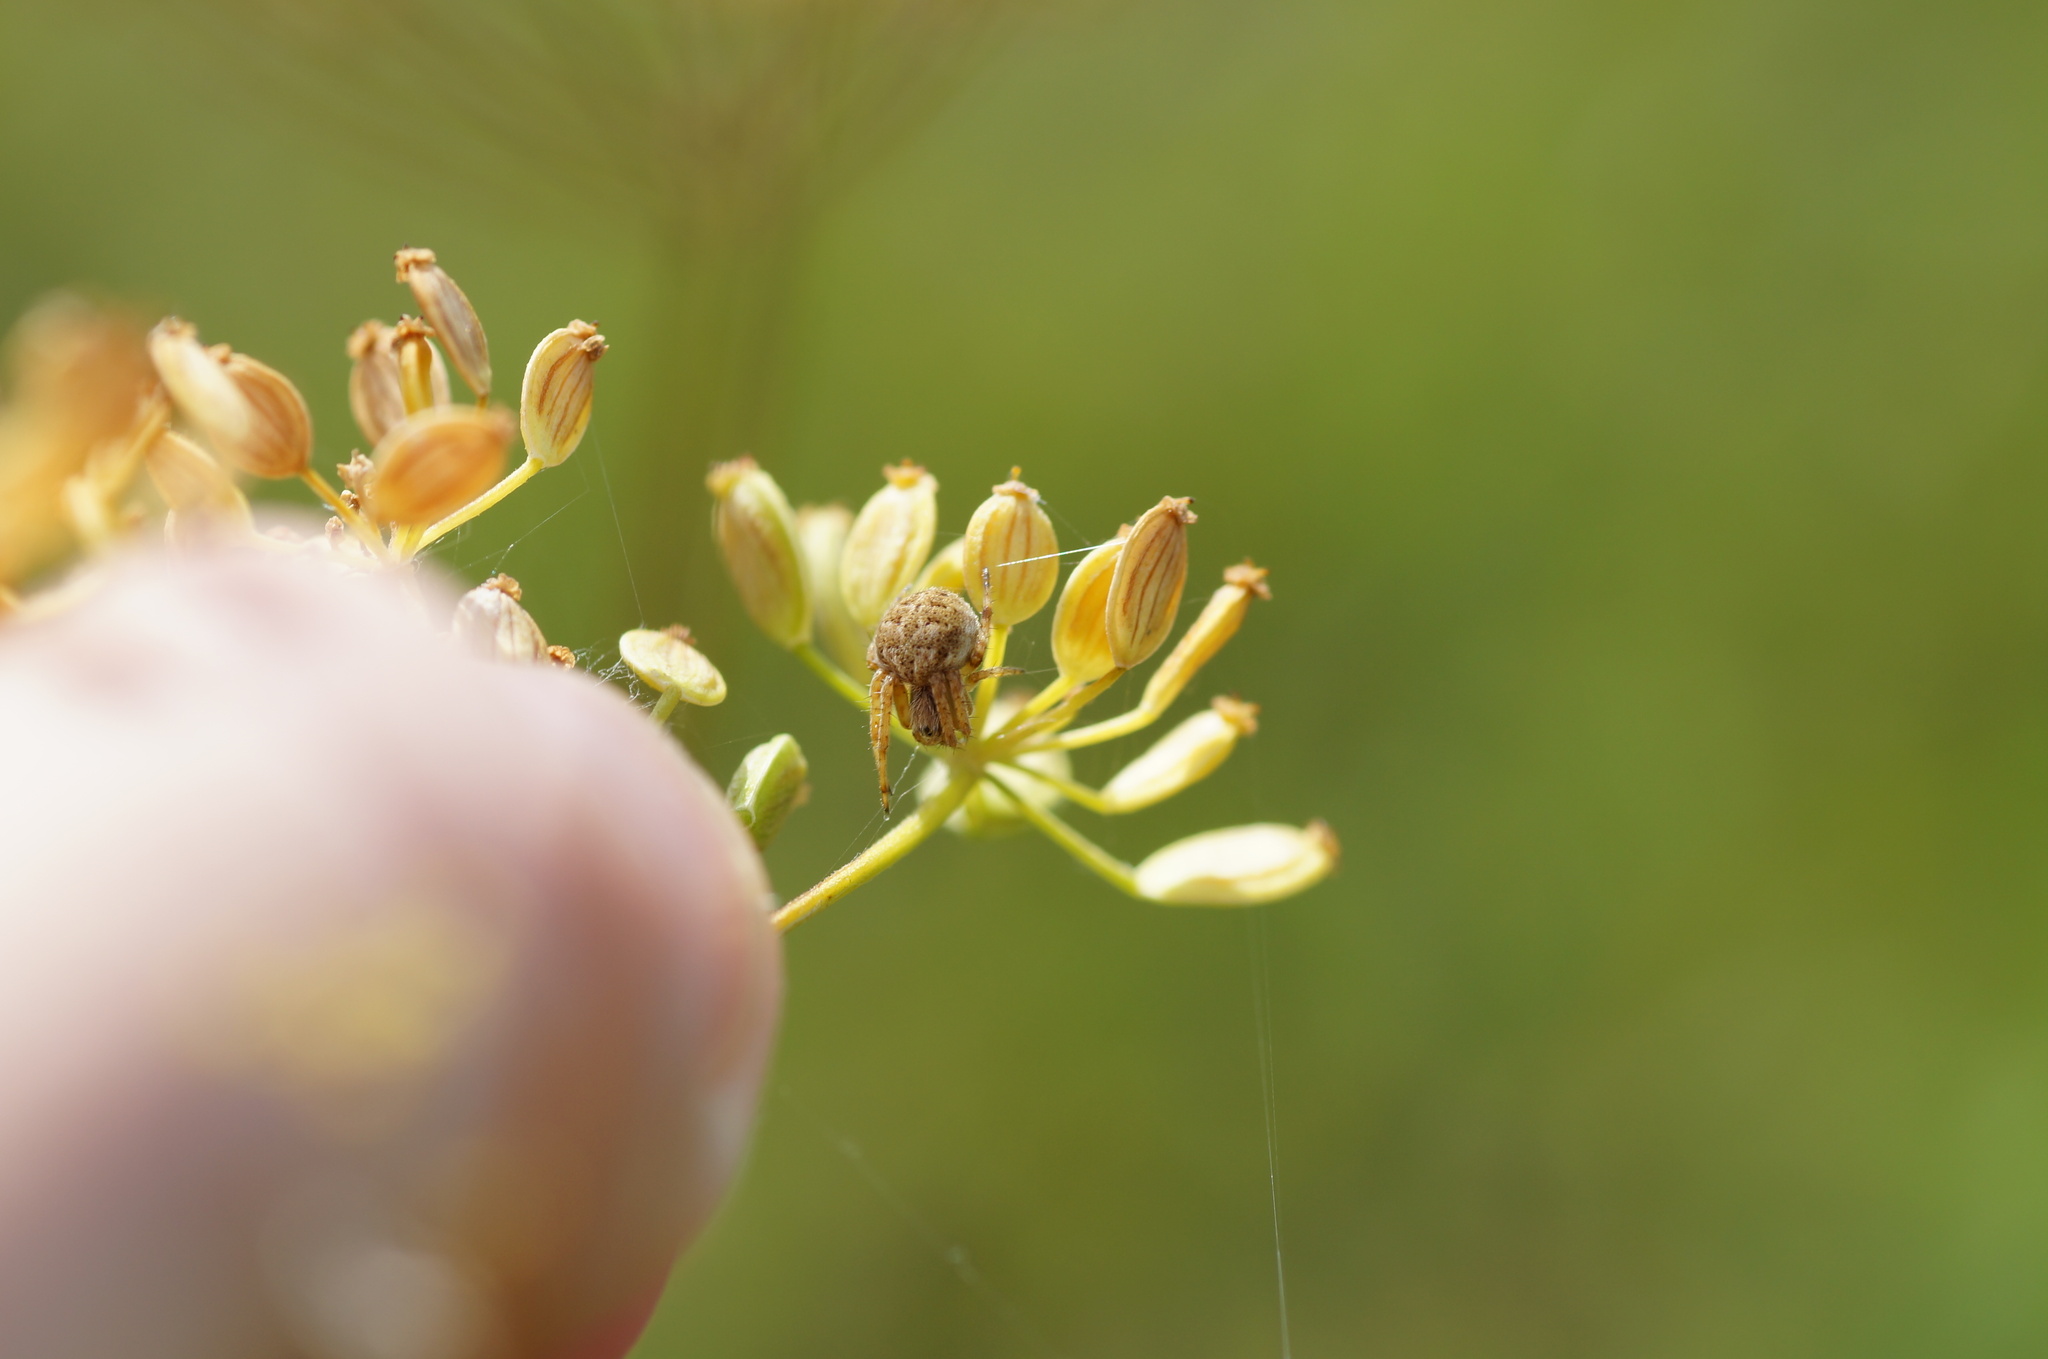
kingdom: Animalia
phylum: Arthropoda
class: Arachnida
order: Araneae
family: Araneidae
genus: Agalenatea
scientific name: Agalenatea redii
